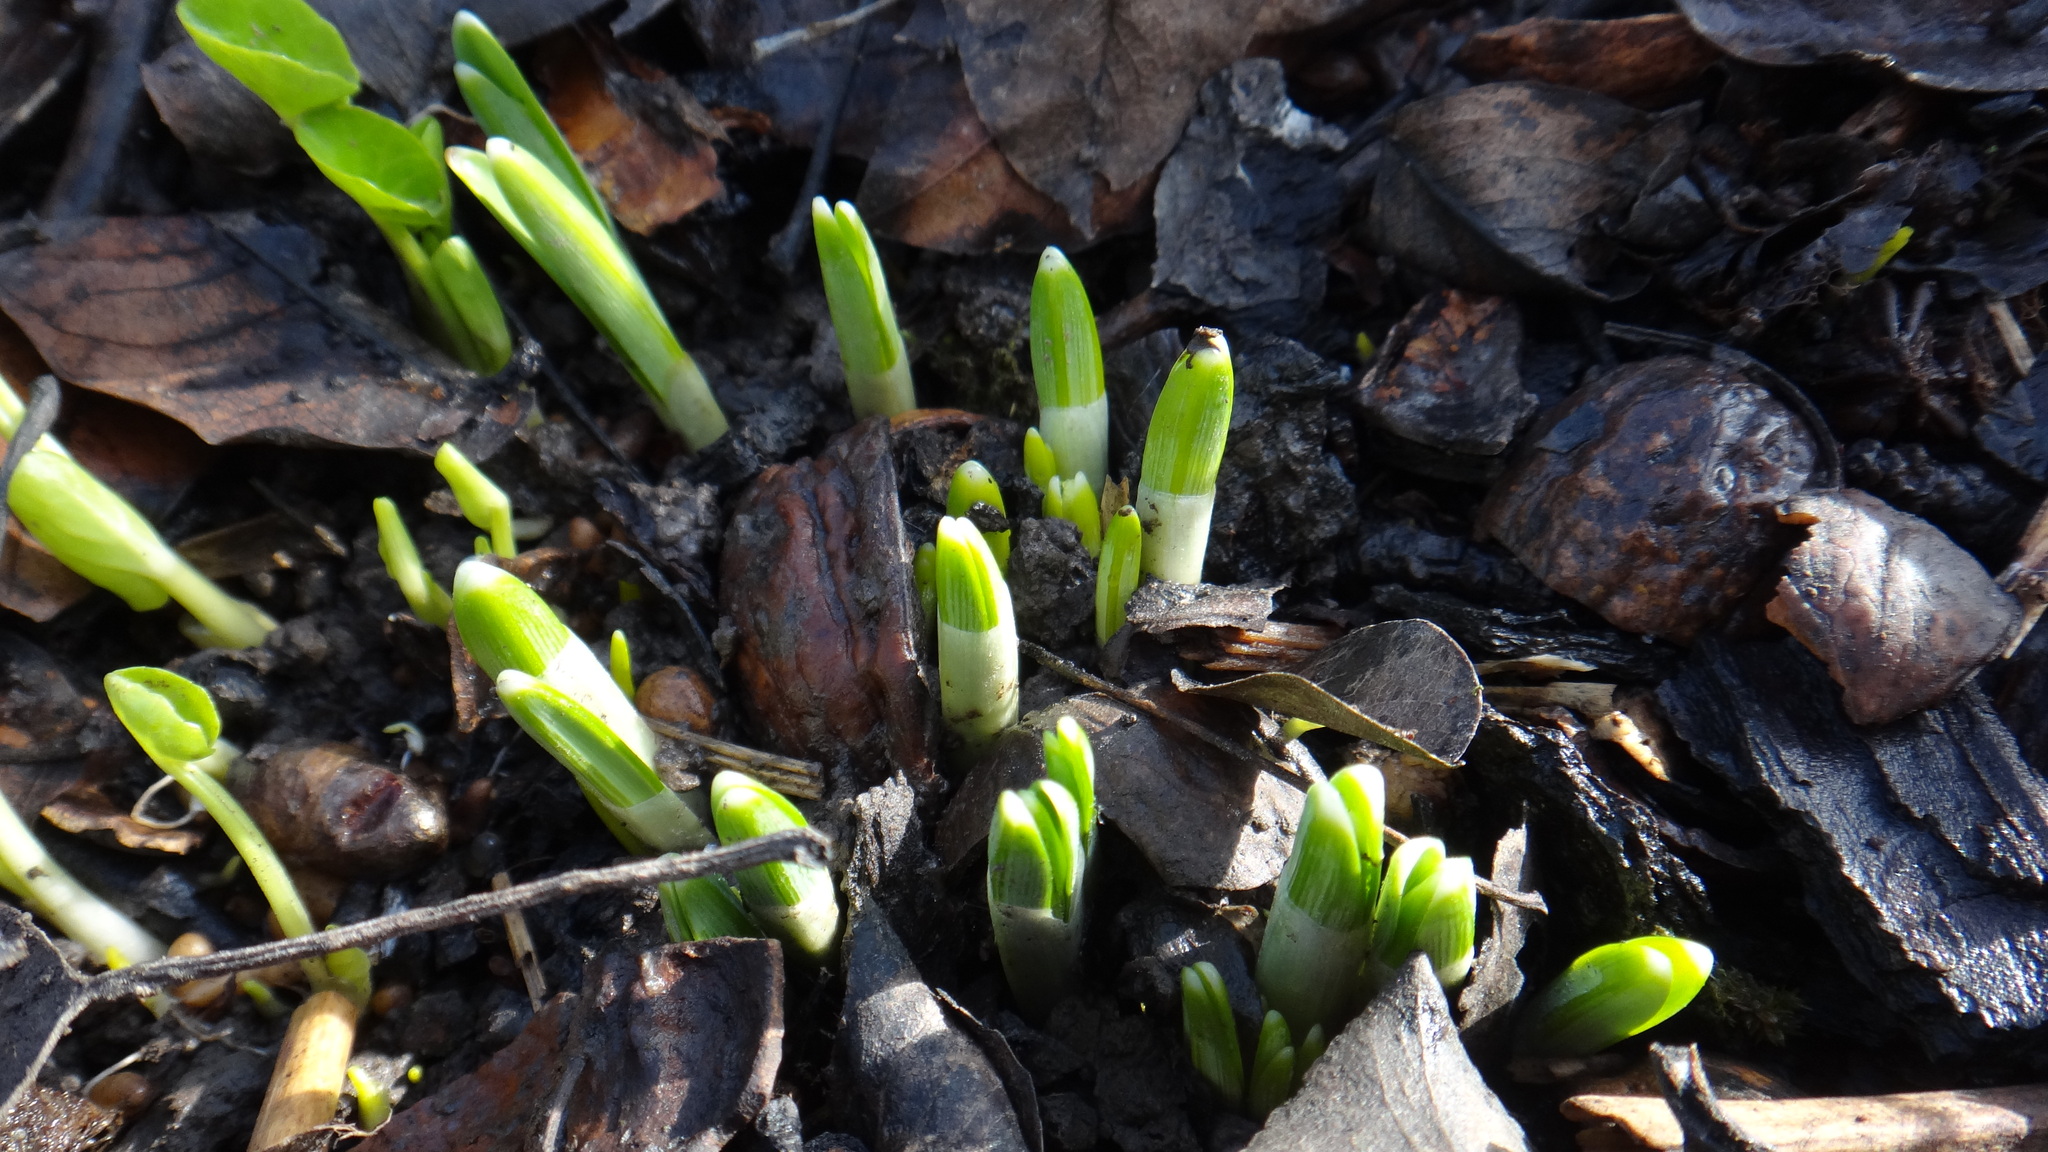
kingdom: Plantae
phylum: Tracheophyta
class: Liliopsida
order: Asparagales
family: Amaryllidaceae
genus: Galanthus
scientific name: Galanthus nivalis
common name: Snowdrop
